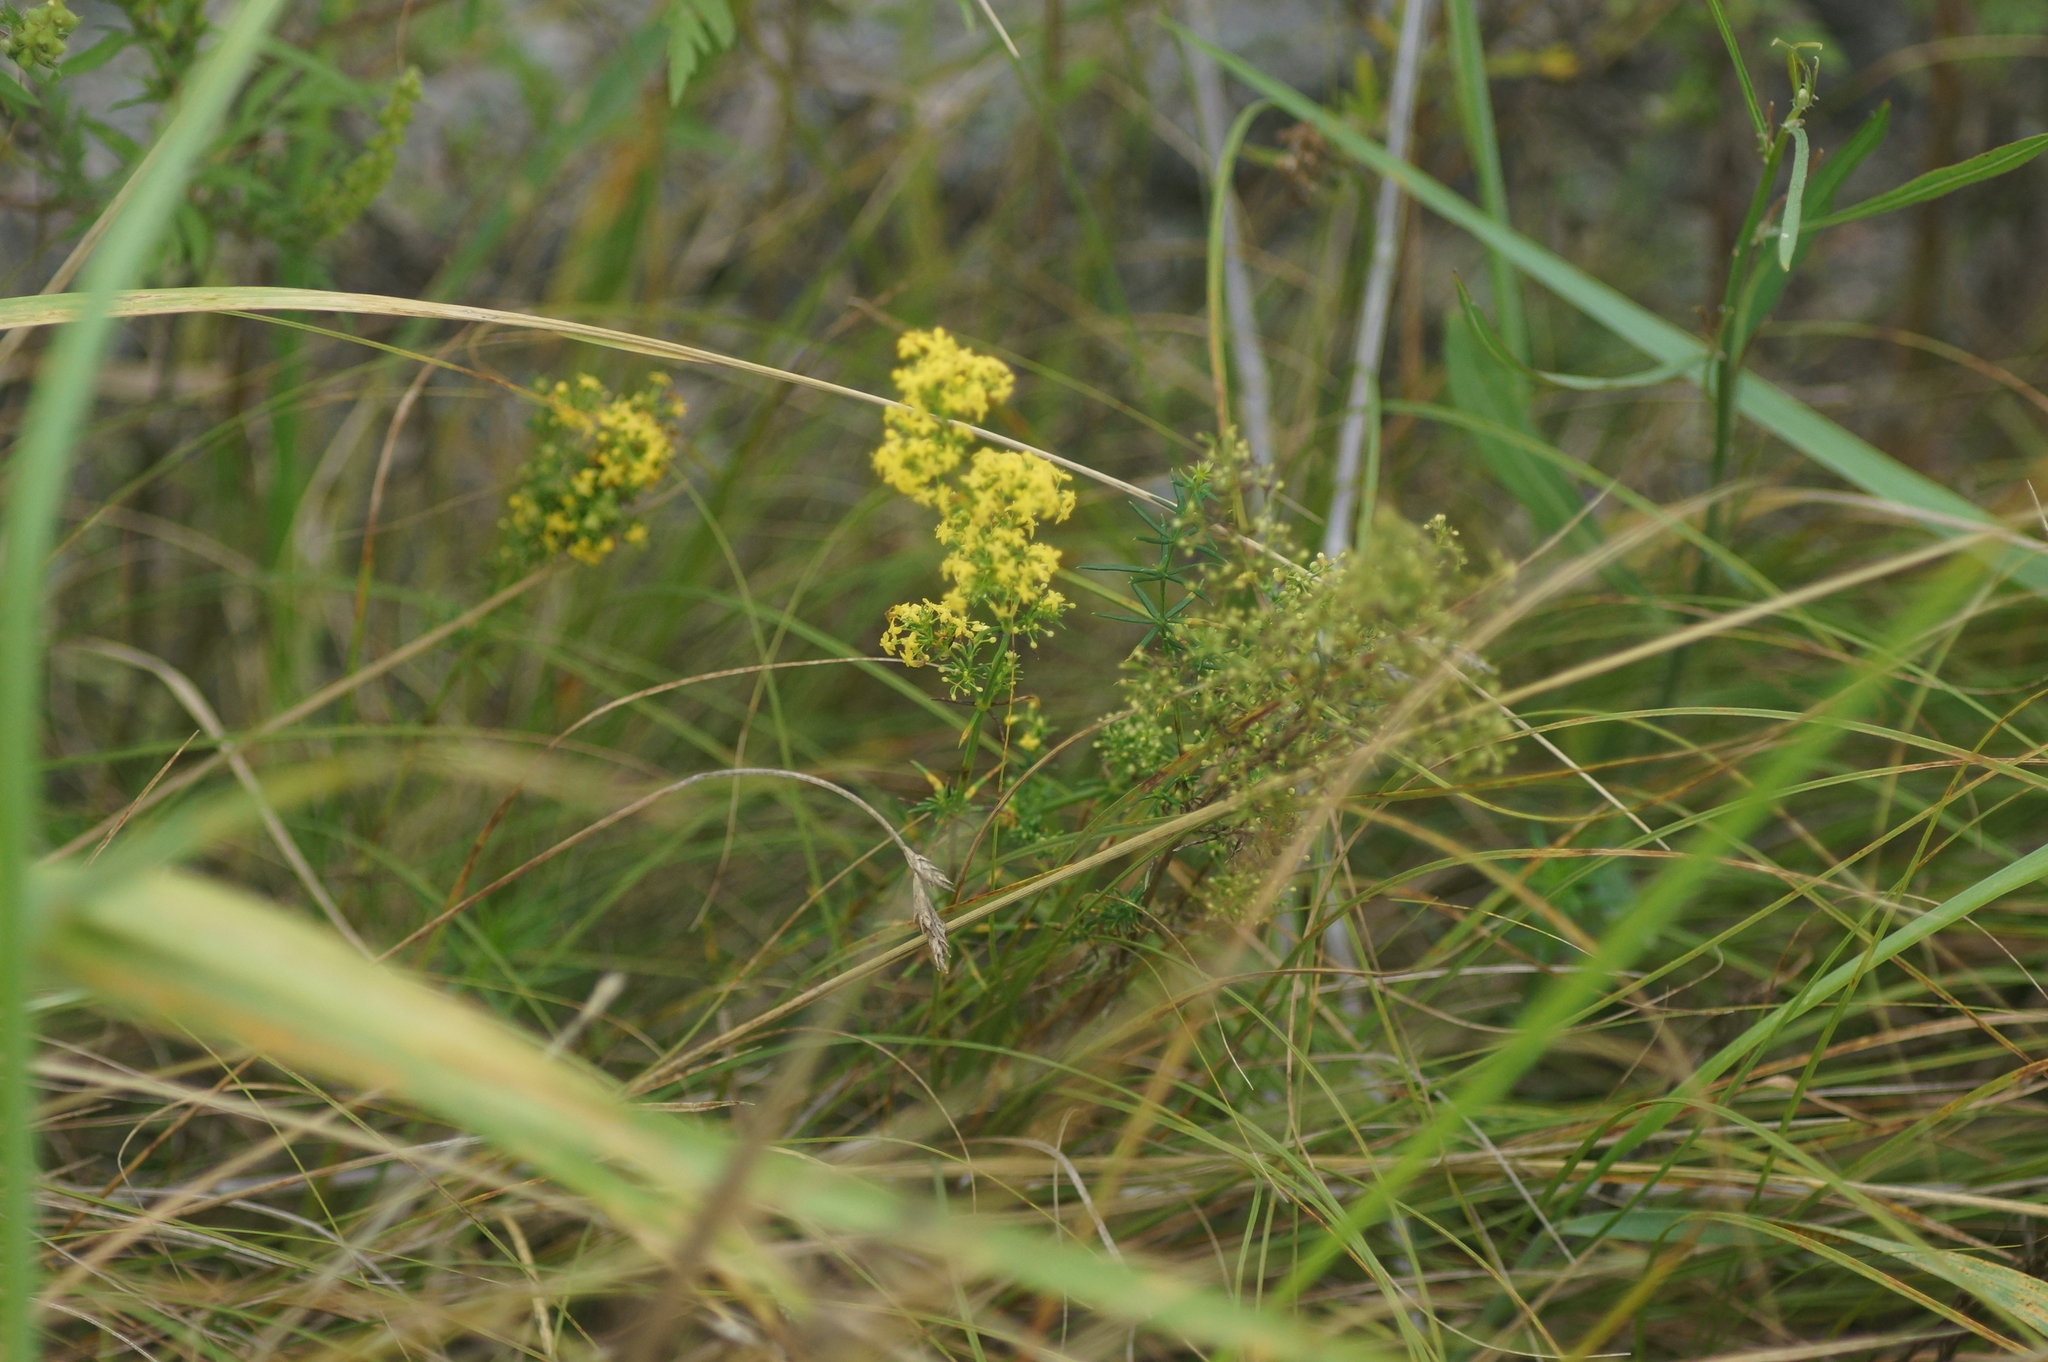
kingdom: Plantae
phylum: Tracheophyta
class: Magnoliopsida
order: Gentianales
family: Rubiaceae
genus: Galium
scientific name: Galium verum
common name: Lady's bedstraw
